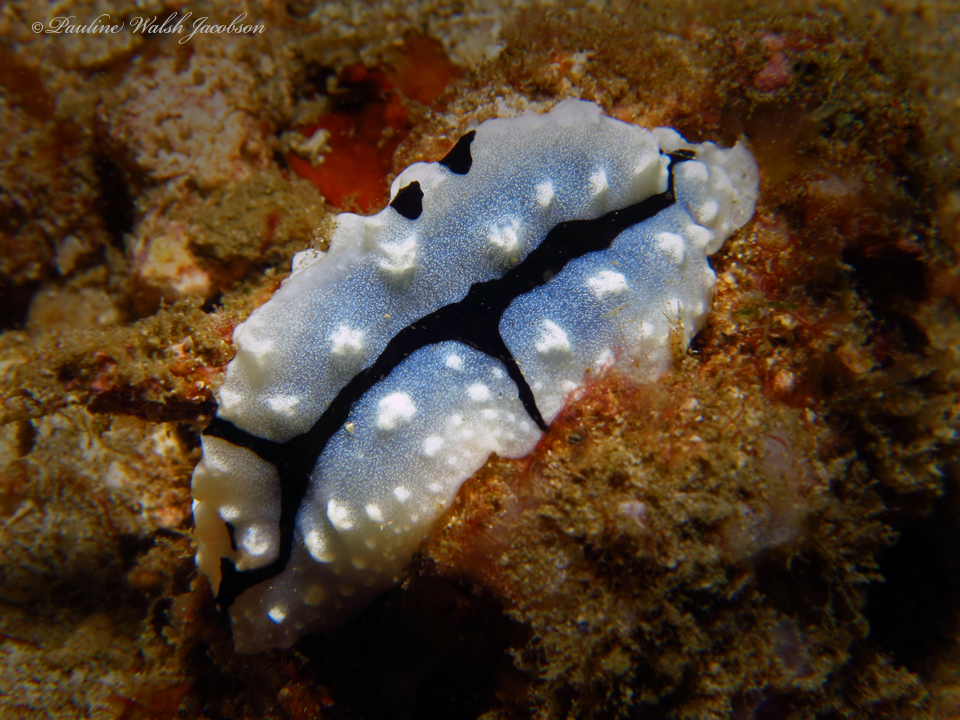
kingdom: Animalia
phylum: Mollusca
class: Gastropoda
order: Nudibranchia
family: Phyllidiidae
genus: Phyllidiopsis
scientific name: Phyllidiopsis shireenae
